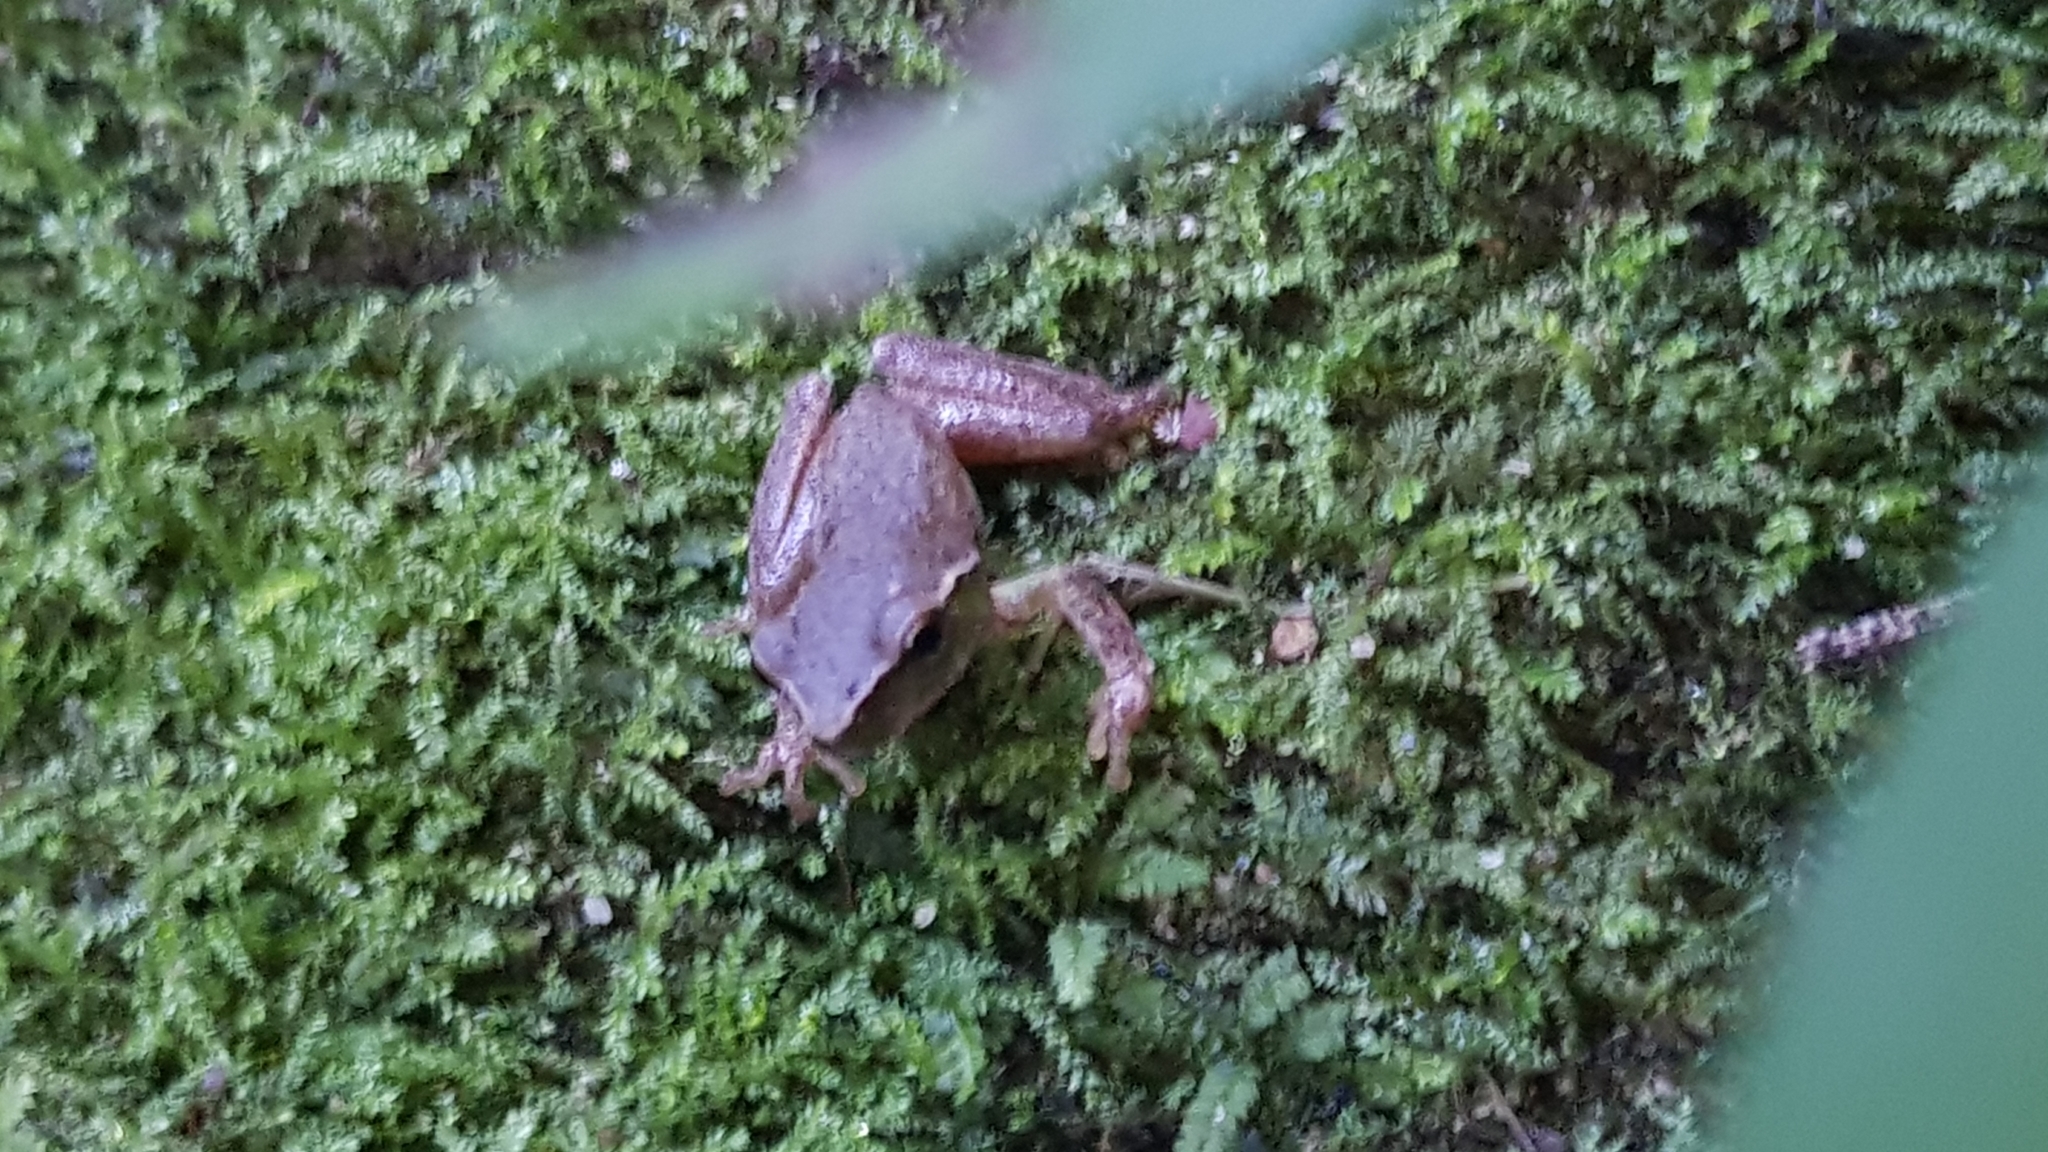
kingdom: Animalia
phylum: Chordata
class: Amphibia
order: Anura
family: Pelodryadidae
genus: Ranoidea
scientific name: Ranoidea phyllochroa
